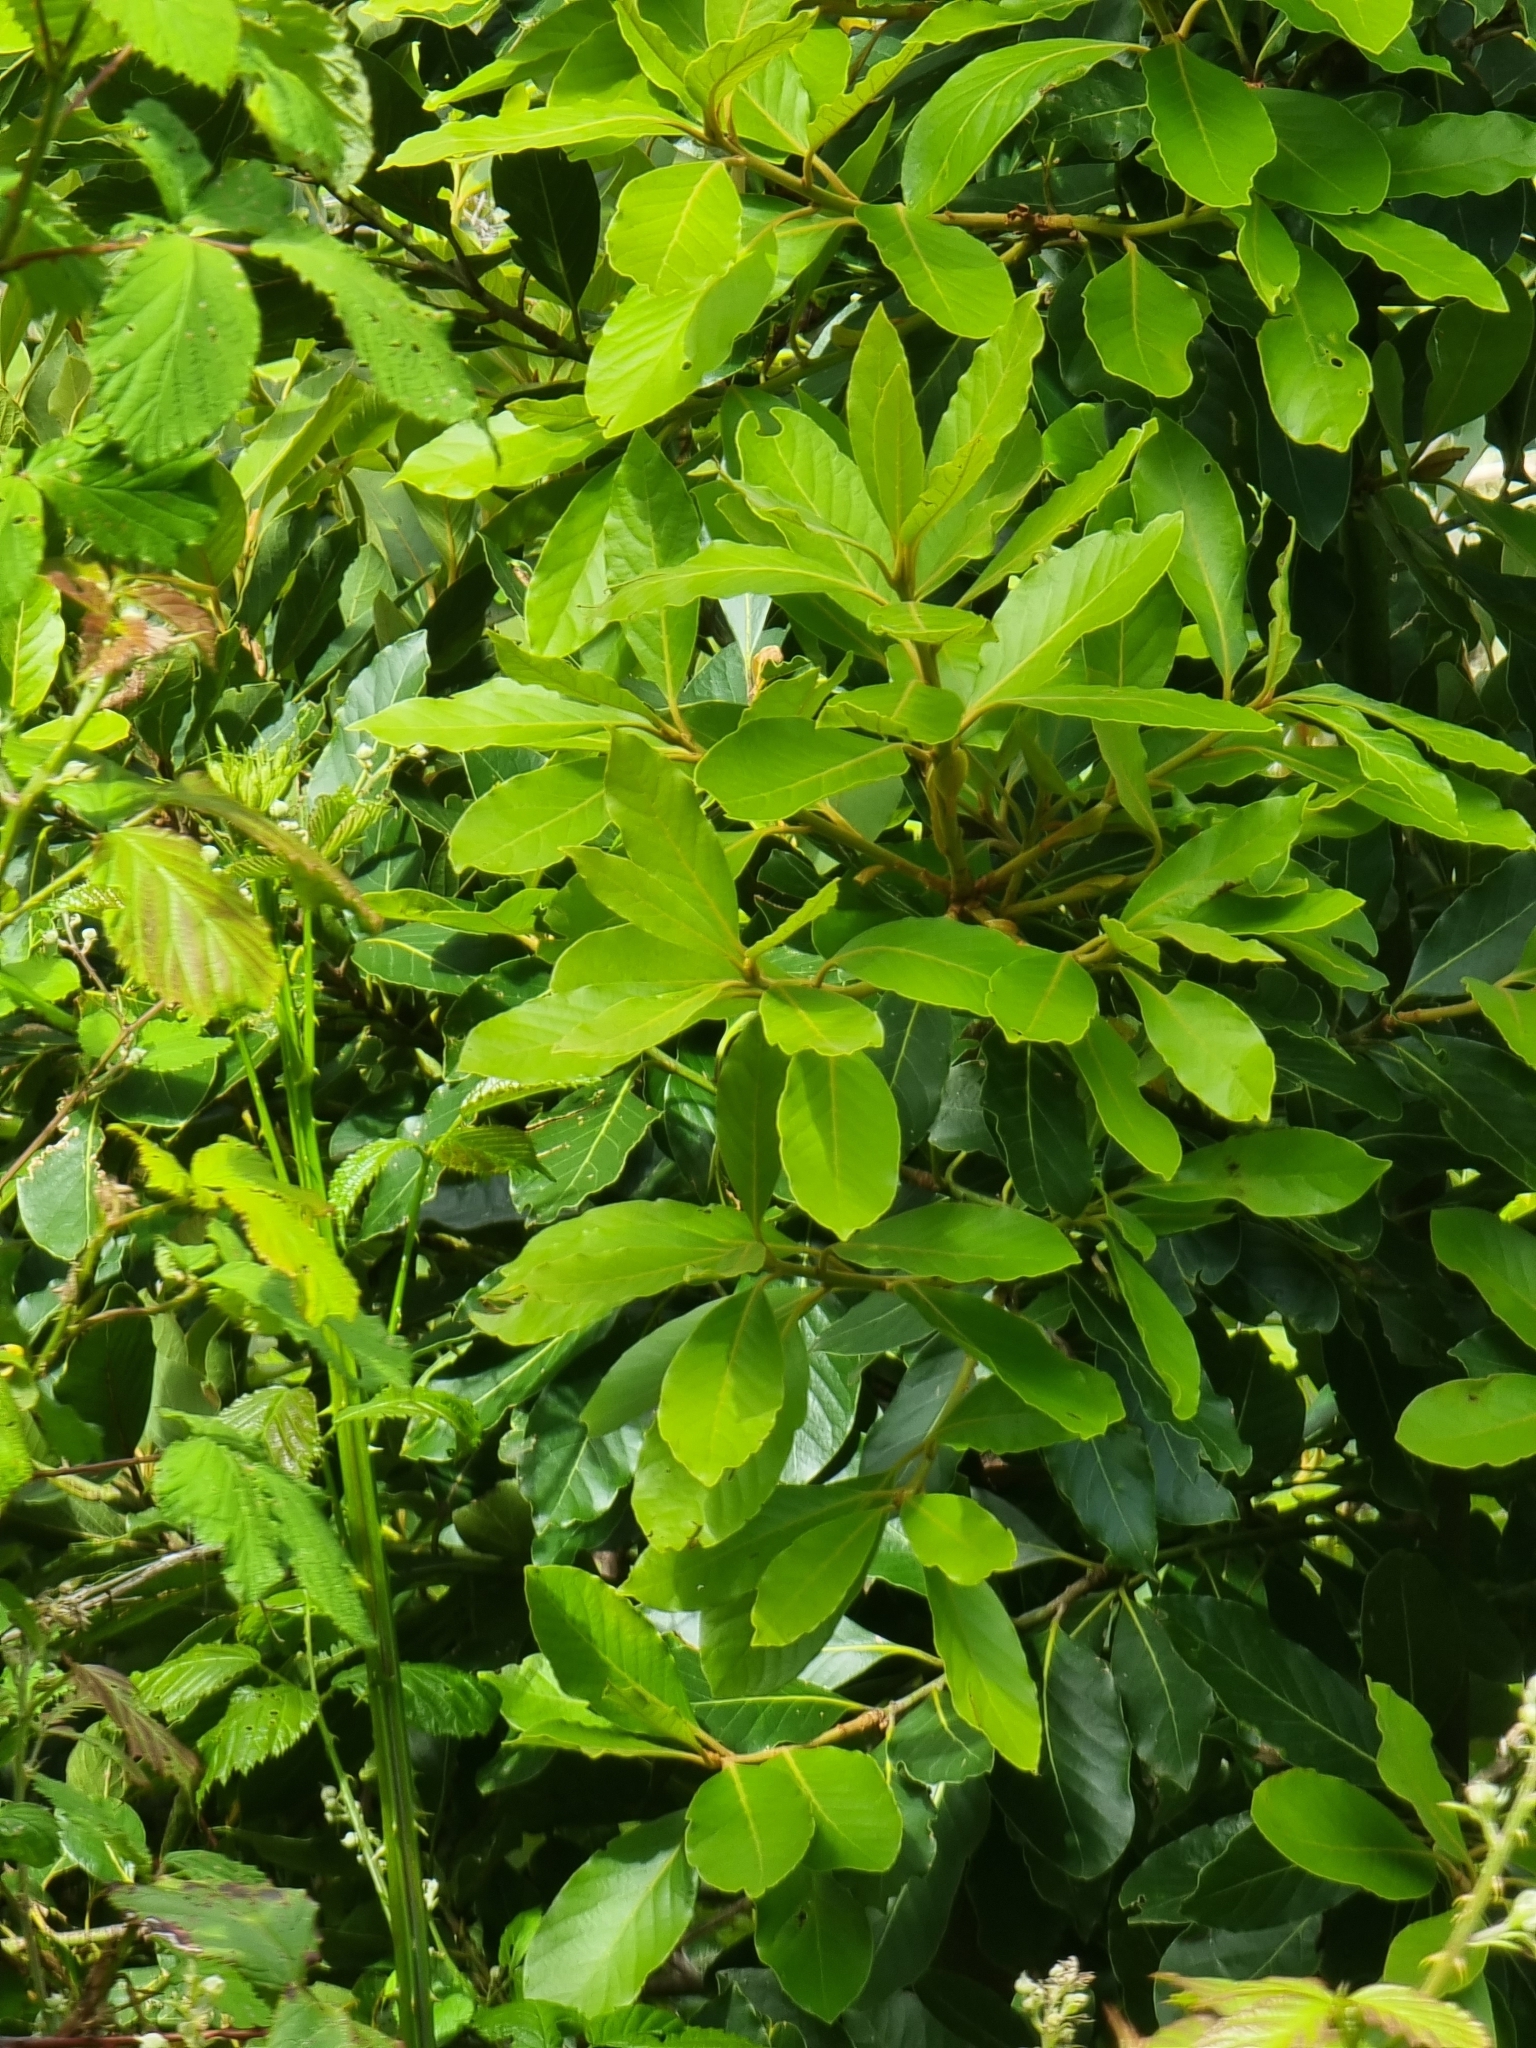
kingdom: Plantae
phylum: Tracheophyta
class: Magnoliopsida
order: Laurales
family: Lauraceae
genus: Laurus
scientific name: Laurus novocanariensis
